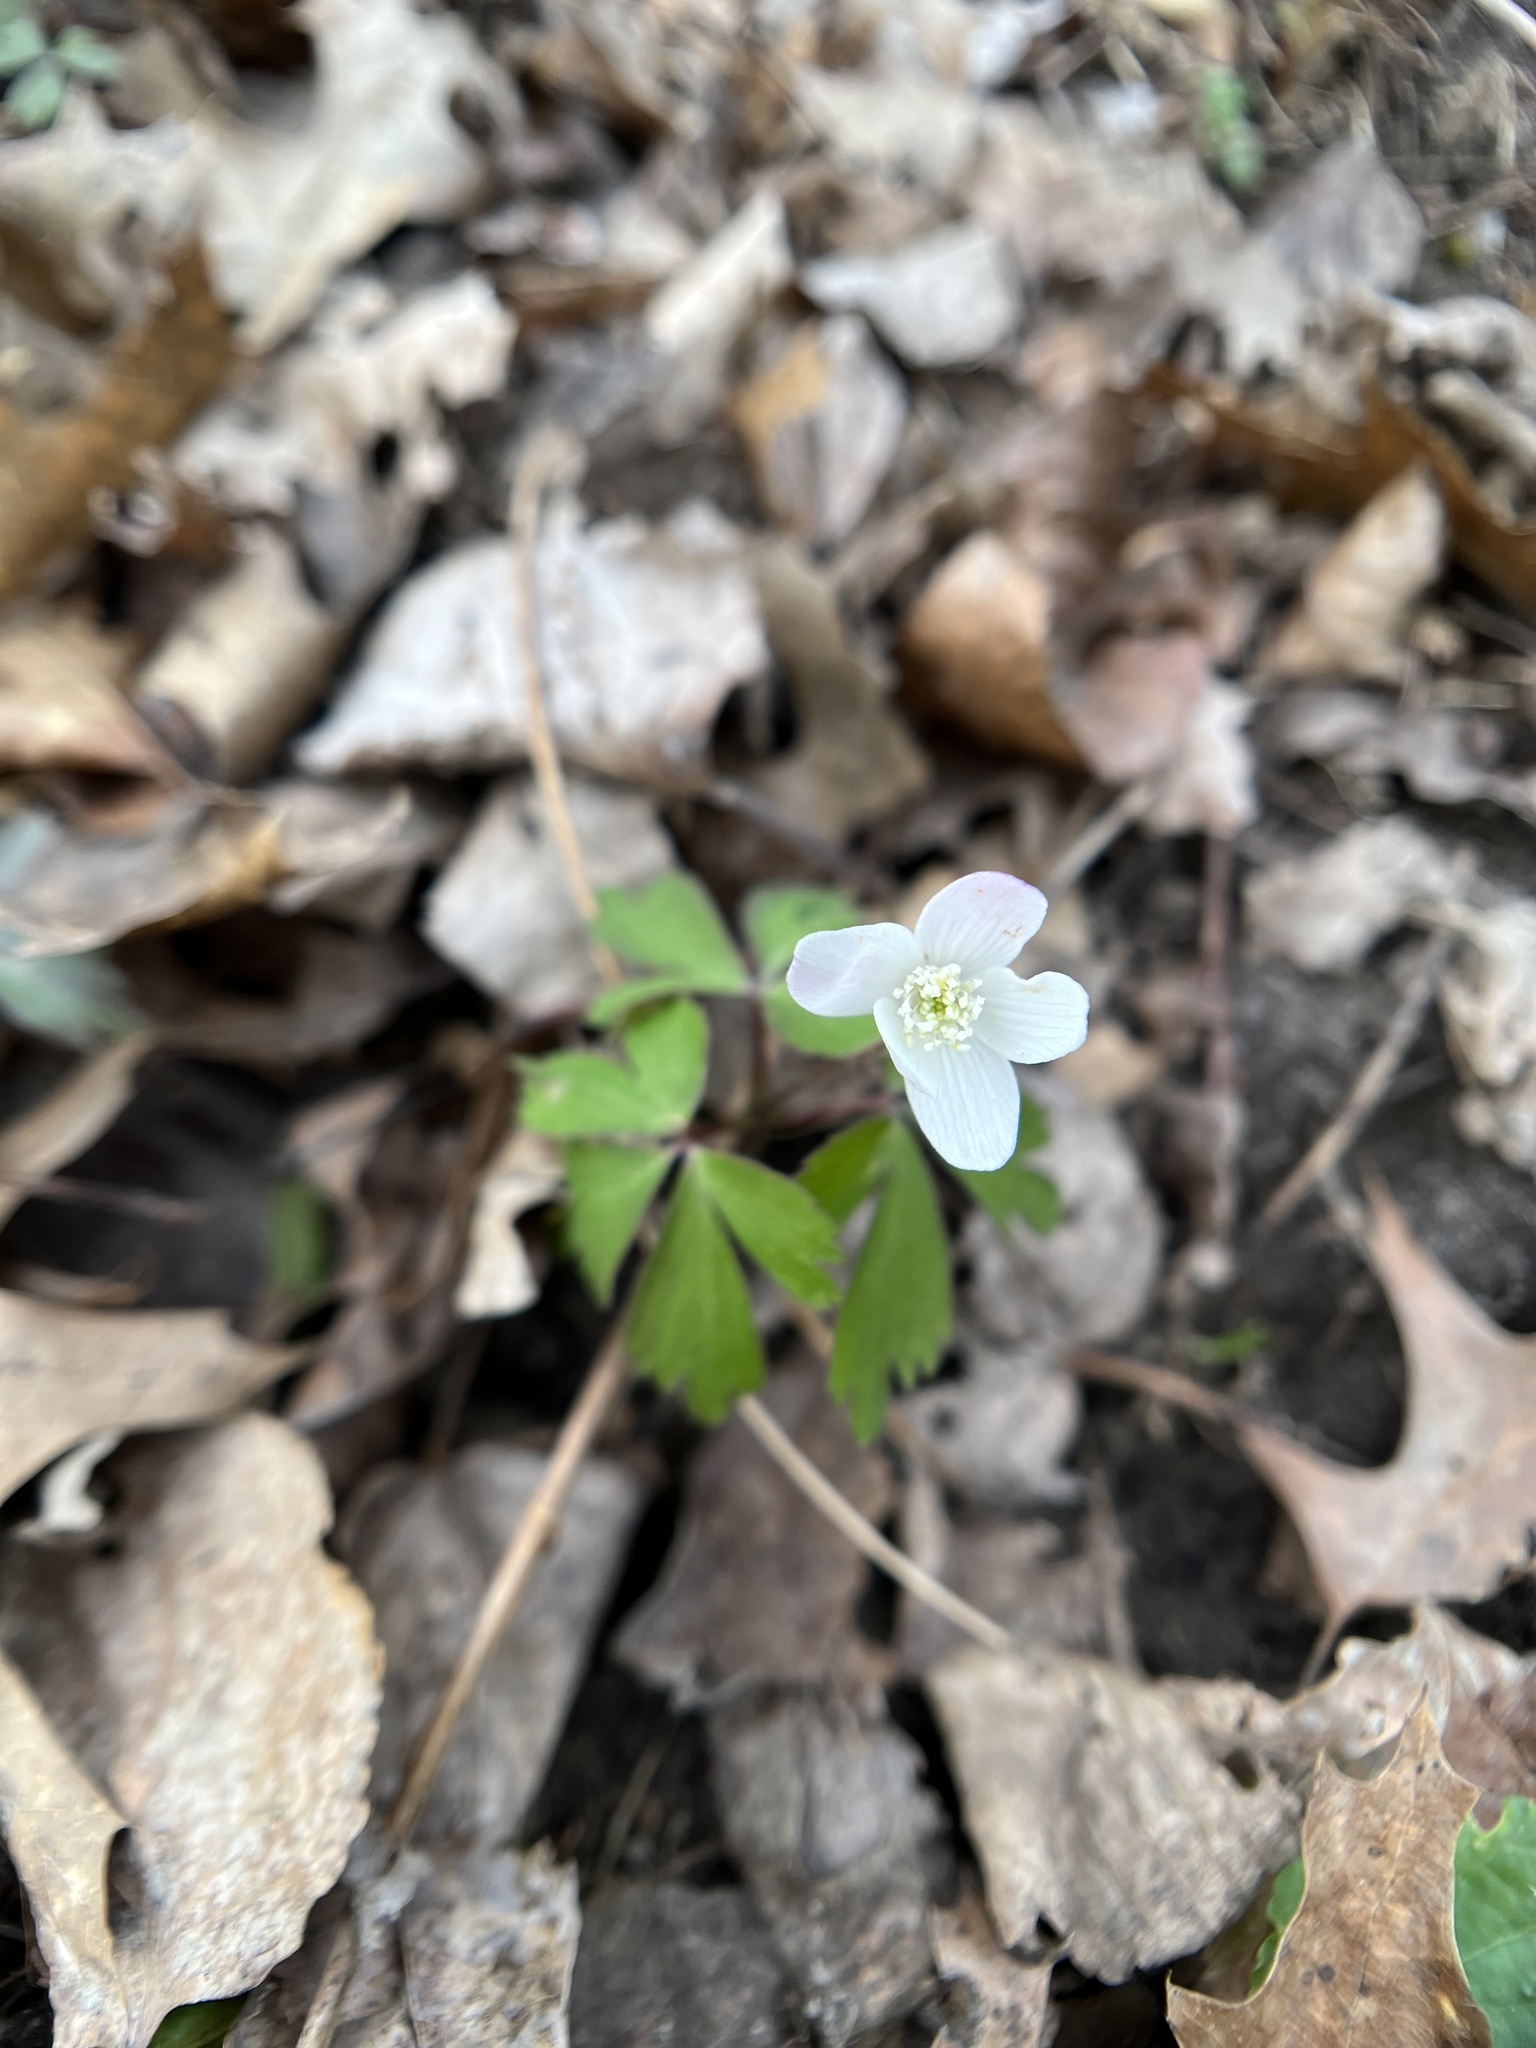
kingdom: Plantae
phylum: Tracheophyta
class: Magnoliopsida
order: Ranunculales
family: Ranunculaceae
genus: Anemone
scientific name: Anemone quinquefolia
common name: Wood anemone
